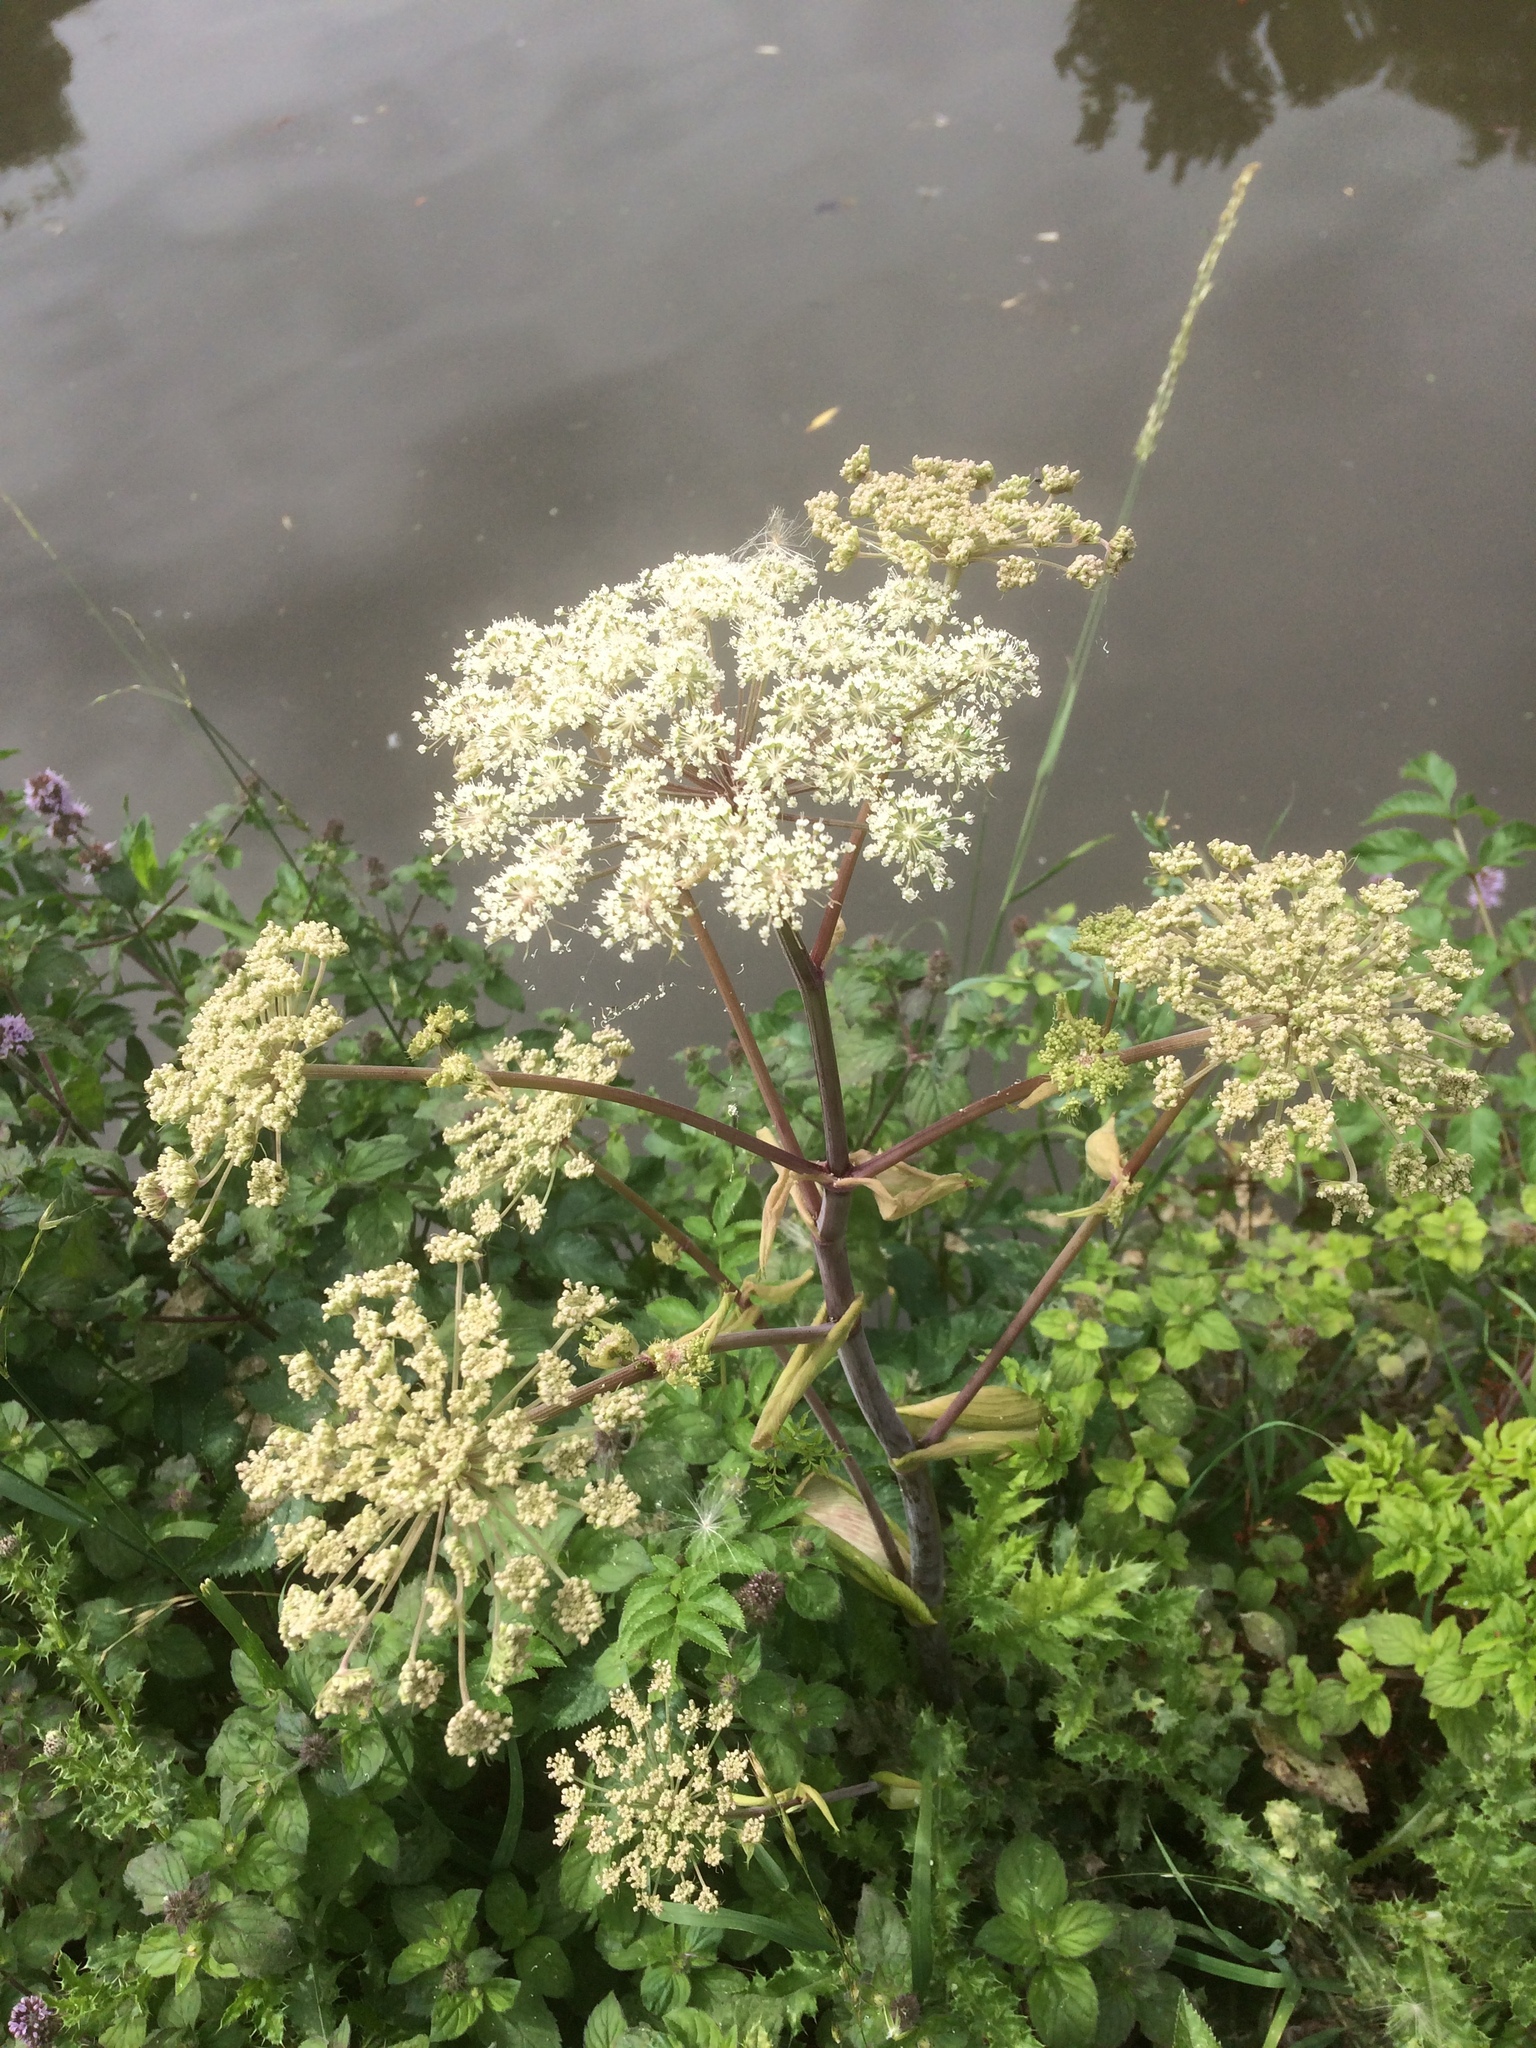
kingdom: Plantae
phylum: Tracheophyta
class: Magnoliopsida
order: Apiales
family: Apiaceae
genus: Angelica
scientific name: Angelica sylvestris
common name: Wild angelica
